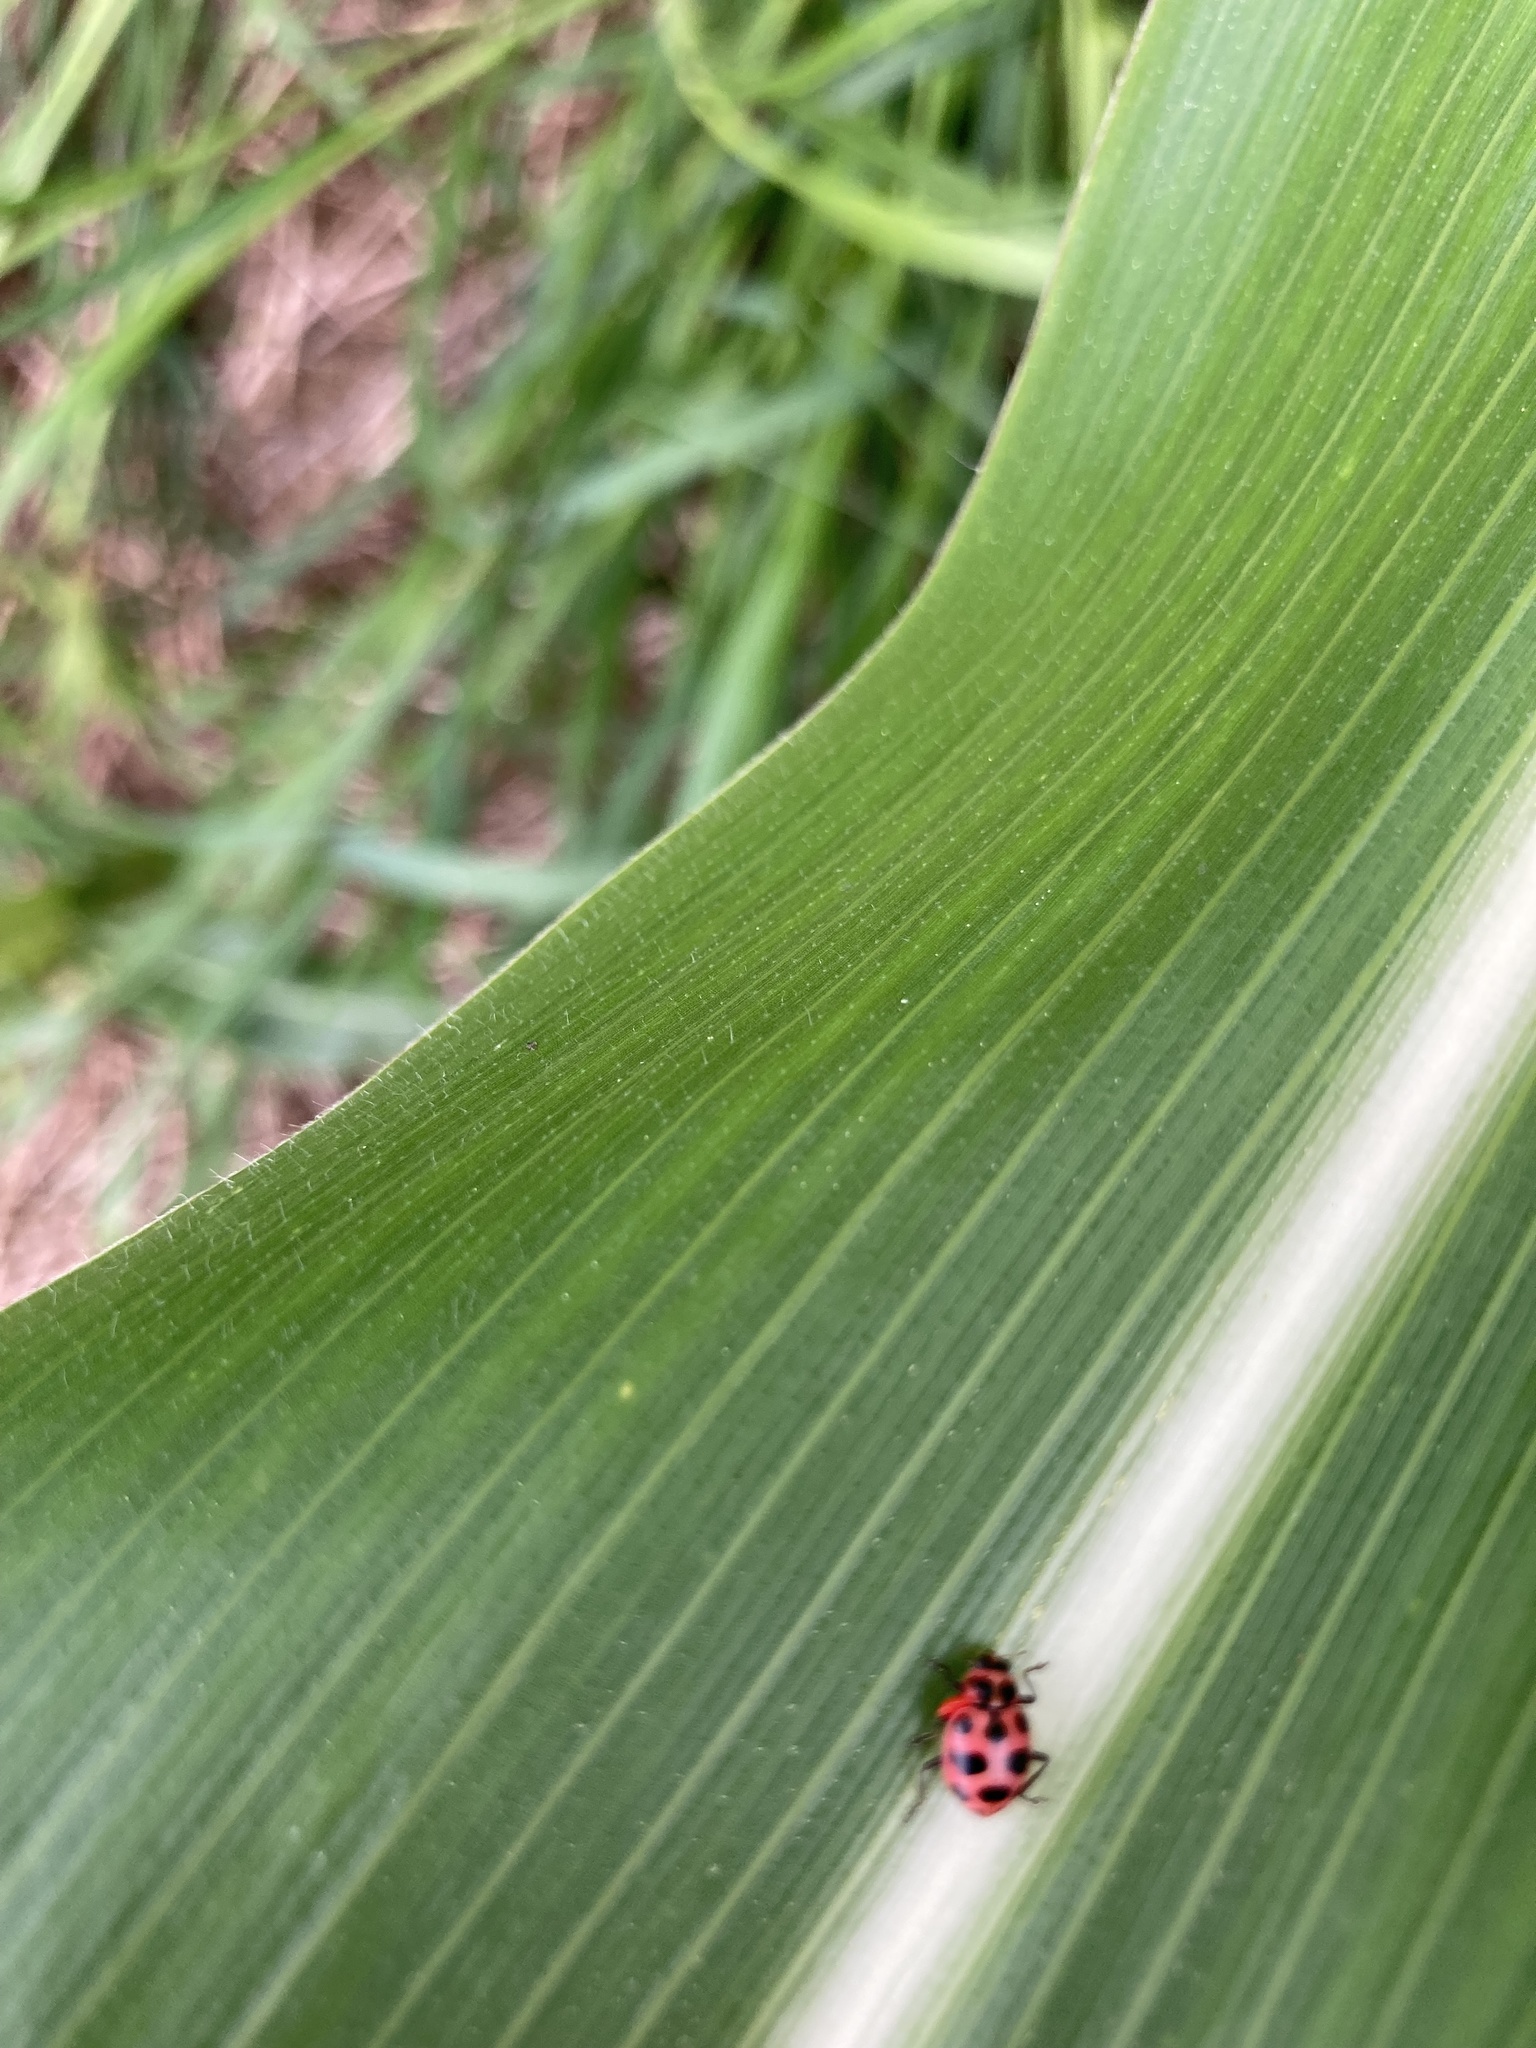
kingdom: Animalia
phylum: Arthropoda
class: Insecta
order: Coleoptera
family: Coccinellidae
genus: Coleomegilla
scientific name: Coleomegilla maculata
